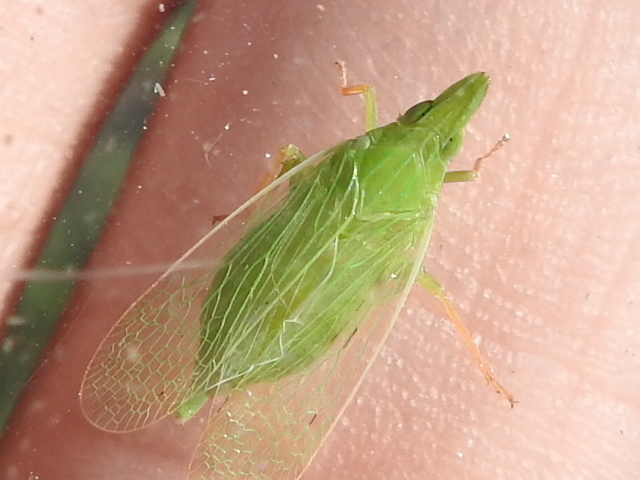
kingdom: Animalia
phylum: Arthropoda
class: Insecta
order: Hemiptera
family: Dictyopharidae
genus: Rhynchomitra
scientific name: Rhynchomitra microrhina
